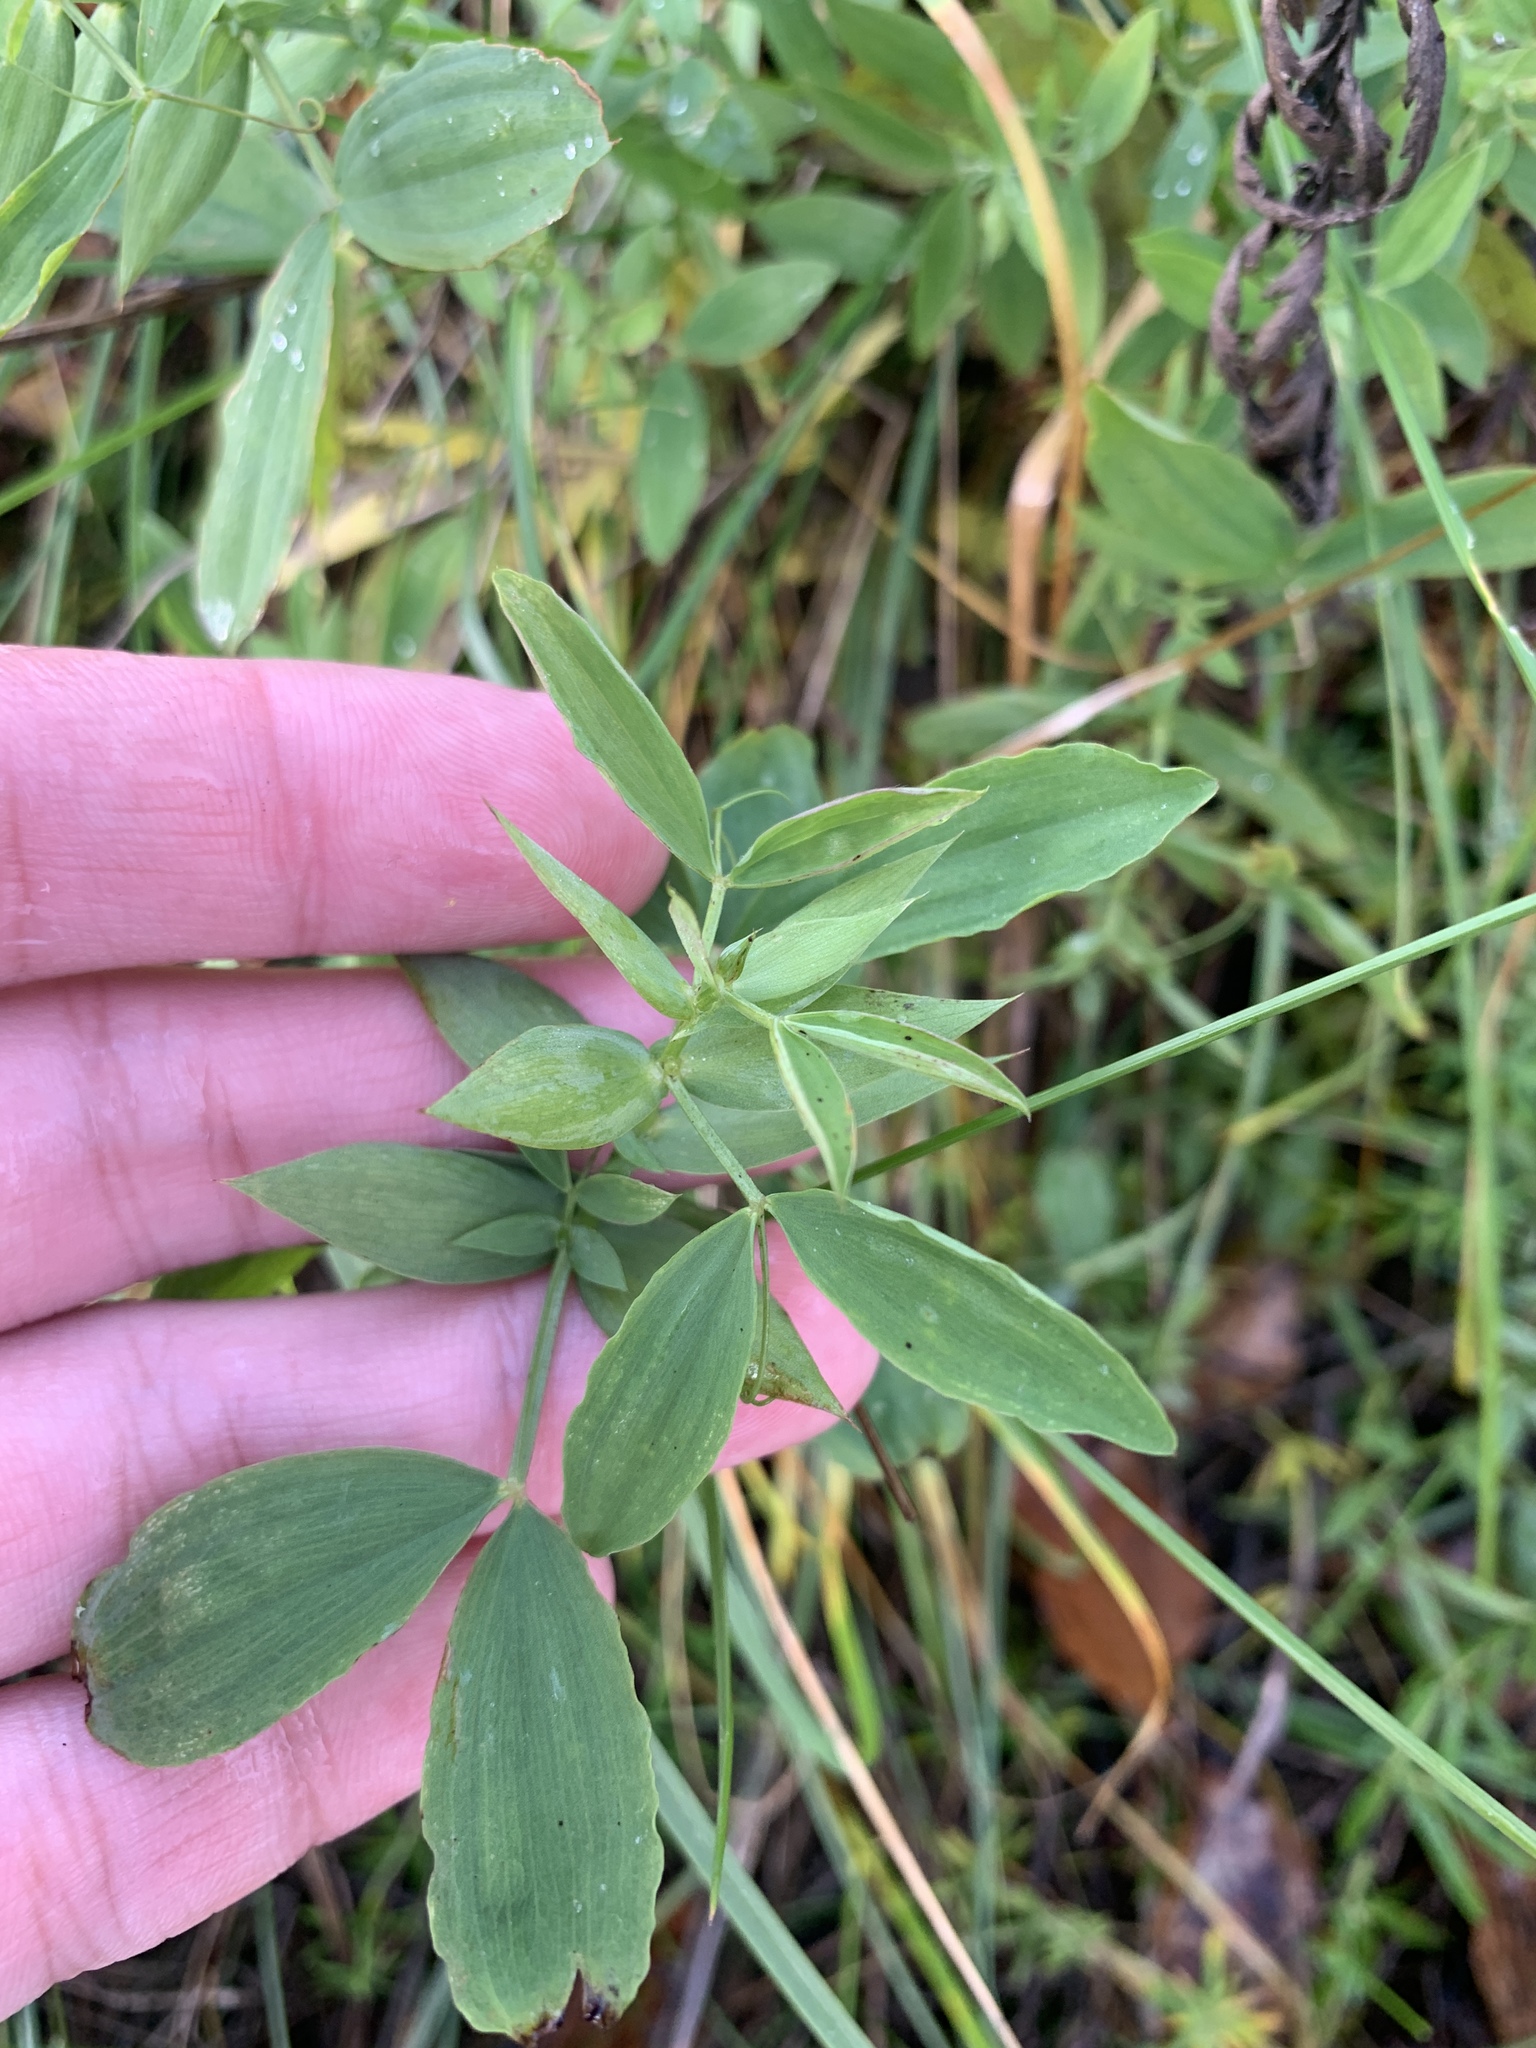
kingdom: Plantae
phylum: Tracheophyta
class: Magnoliopsida
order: Fabales
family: Fabaceae
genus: Lathyrus
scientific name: Lathyrus pratensis
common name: Meadow vetchling
